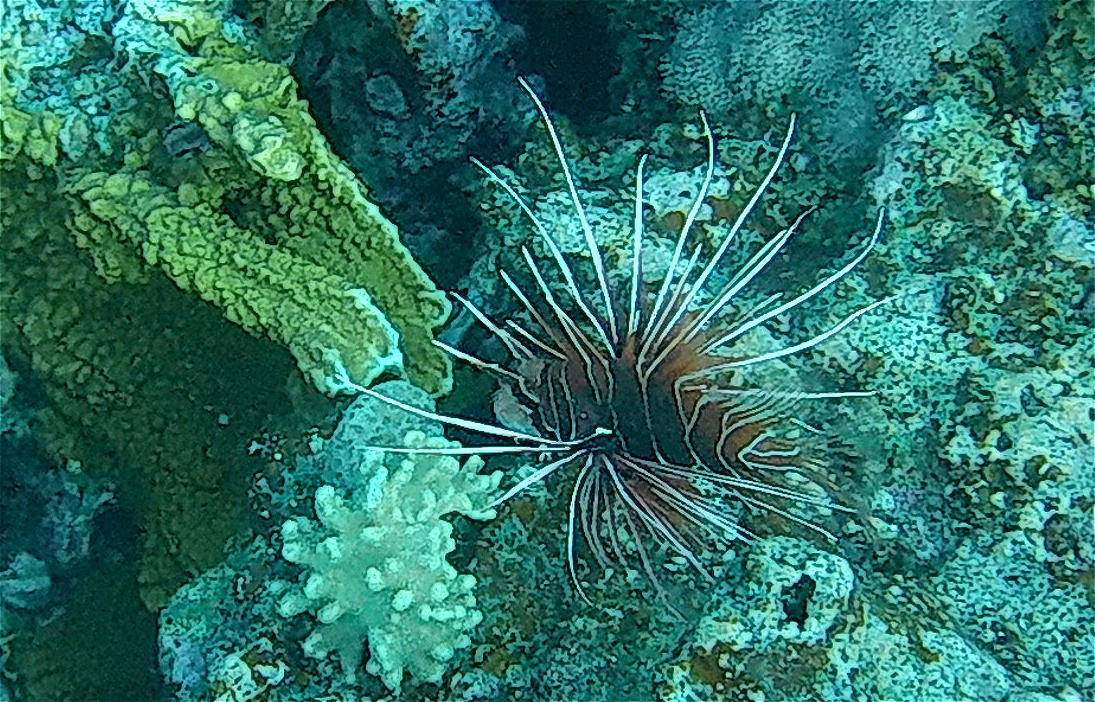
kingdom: Animalia
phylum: Chordata
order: Scorpaeniformes
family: Scorpaenidae
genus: Pterois
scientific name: Pterois cincta
